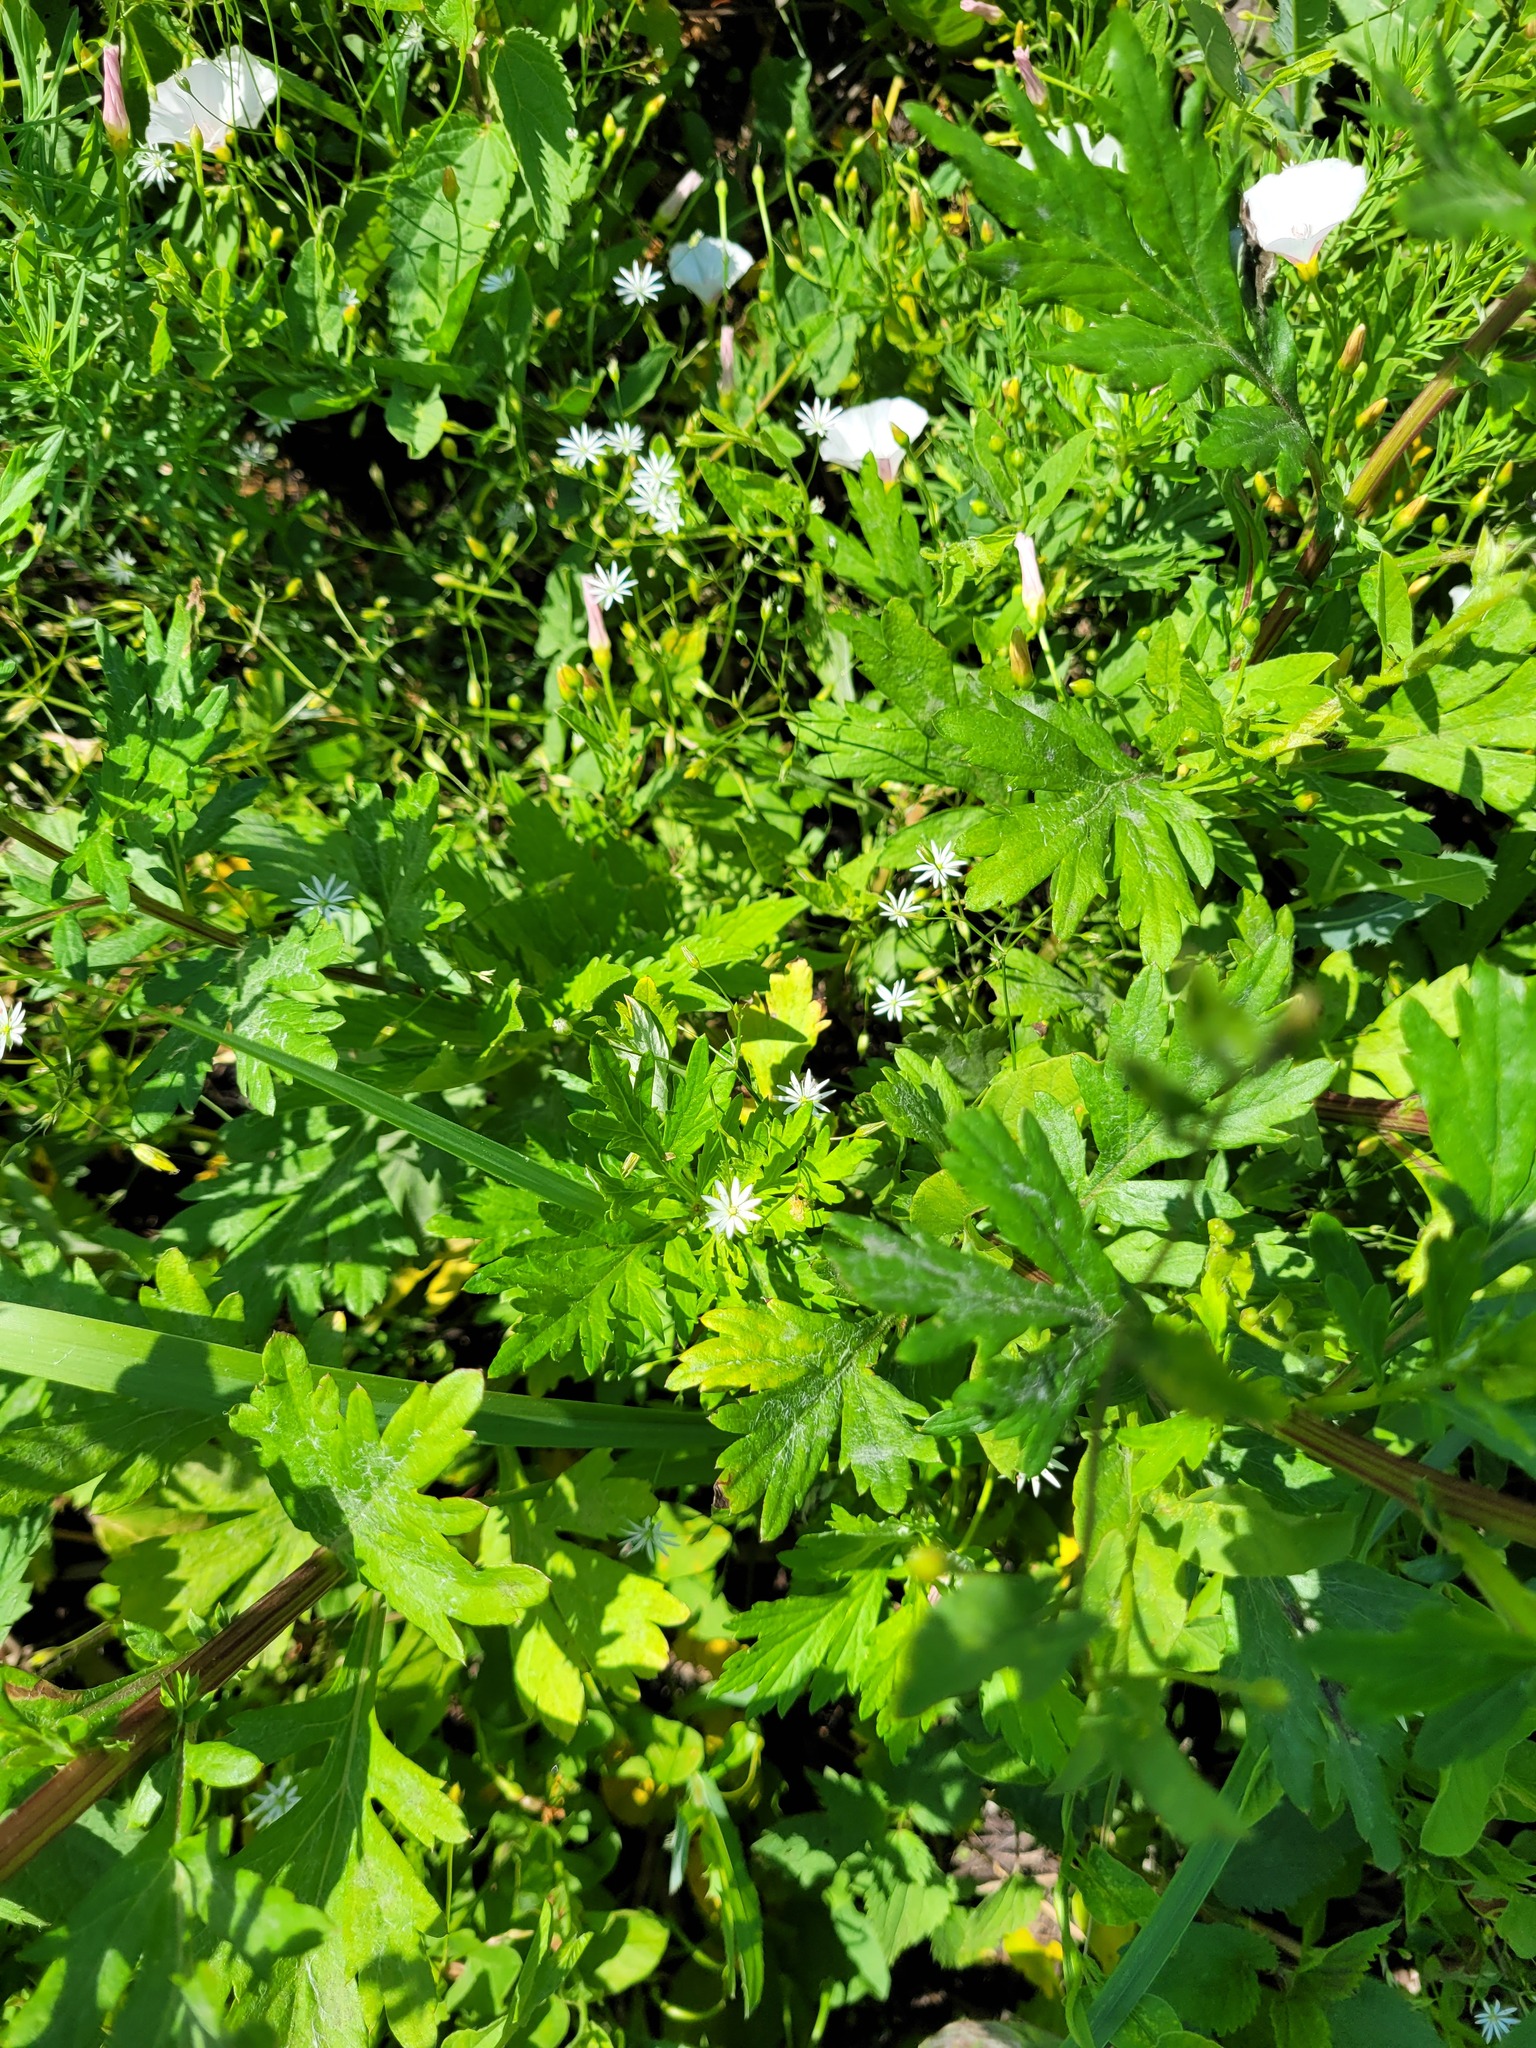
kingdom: Plantae
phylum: Tracheophyta
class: Magnoliopsida
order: Caryophyllales
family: Caryophyllaceae
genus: Stellaria
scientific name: Stellaria graminea
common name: Grass-like starwort
